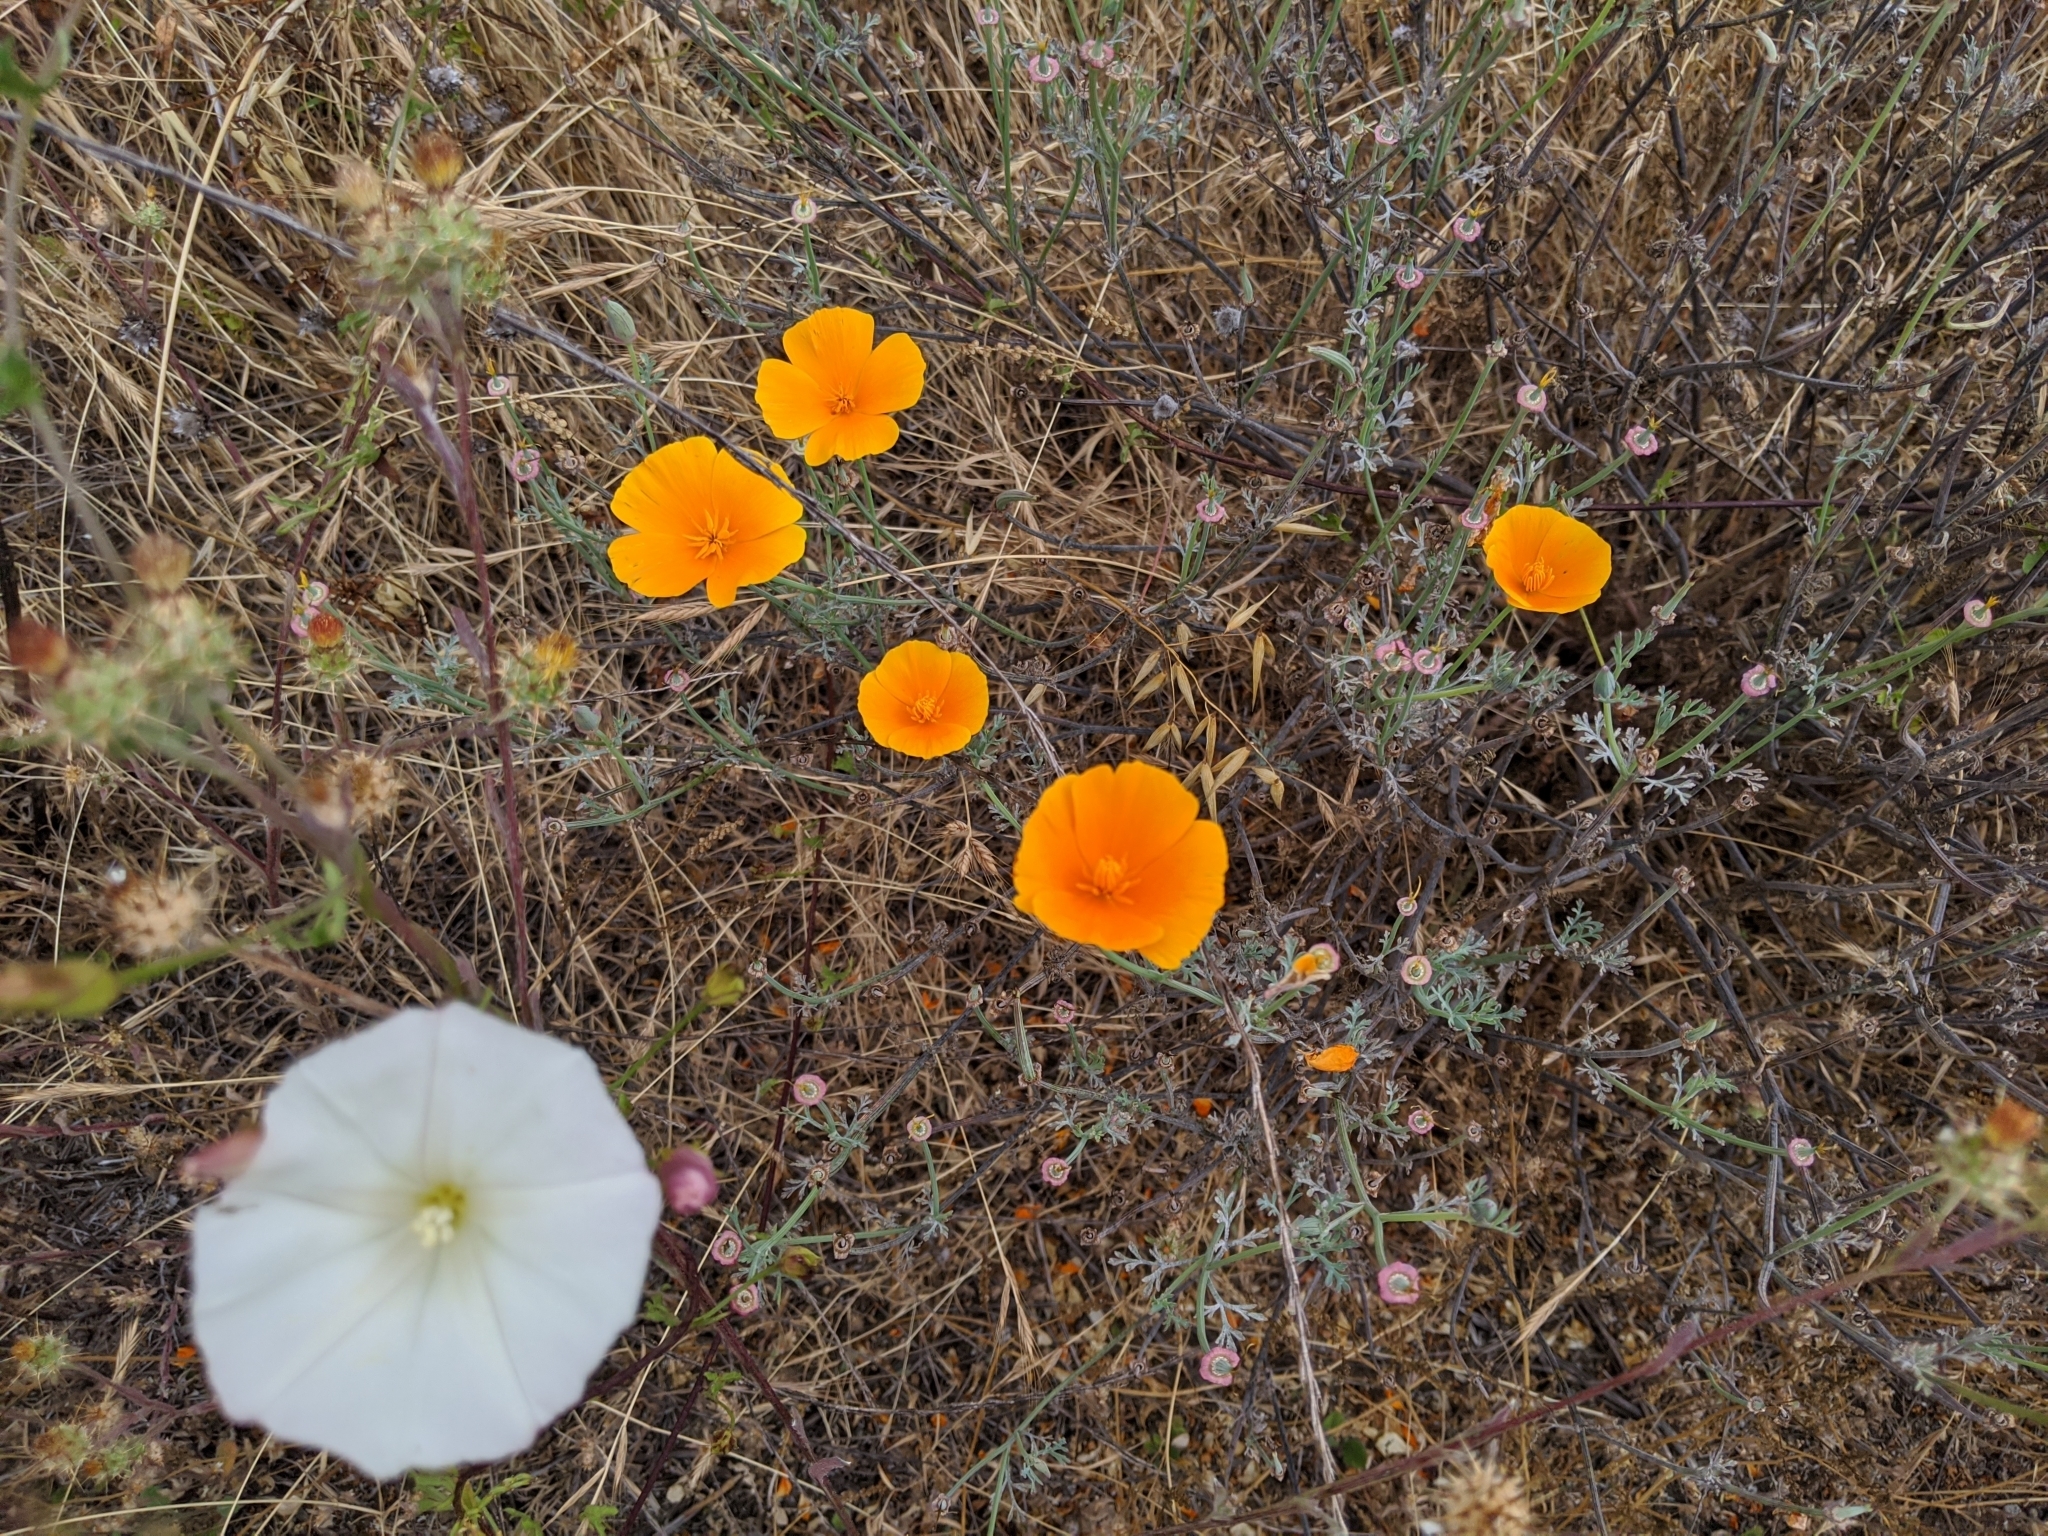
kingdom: Plantae
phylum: Tracheophyta
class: Magnoliopsida
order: Ranunculales
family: Papaveraceae
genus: Eschscholzia
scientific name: Eschscholzia californica
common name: California poppy
